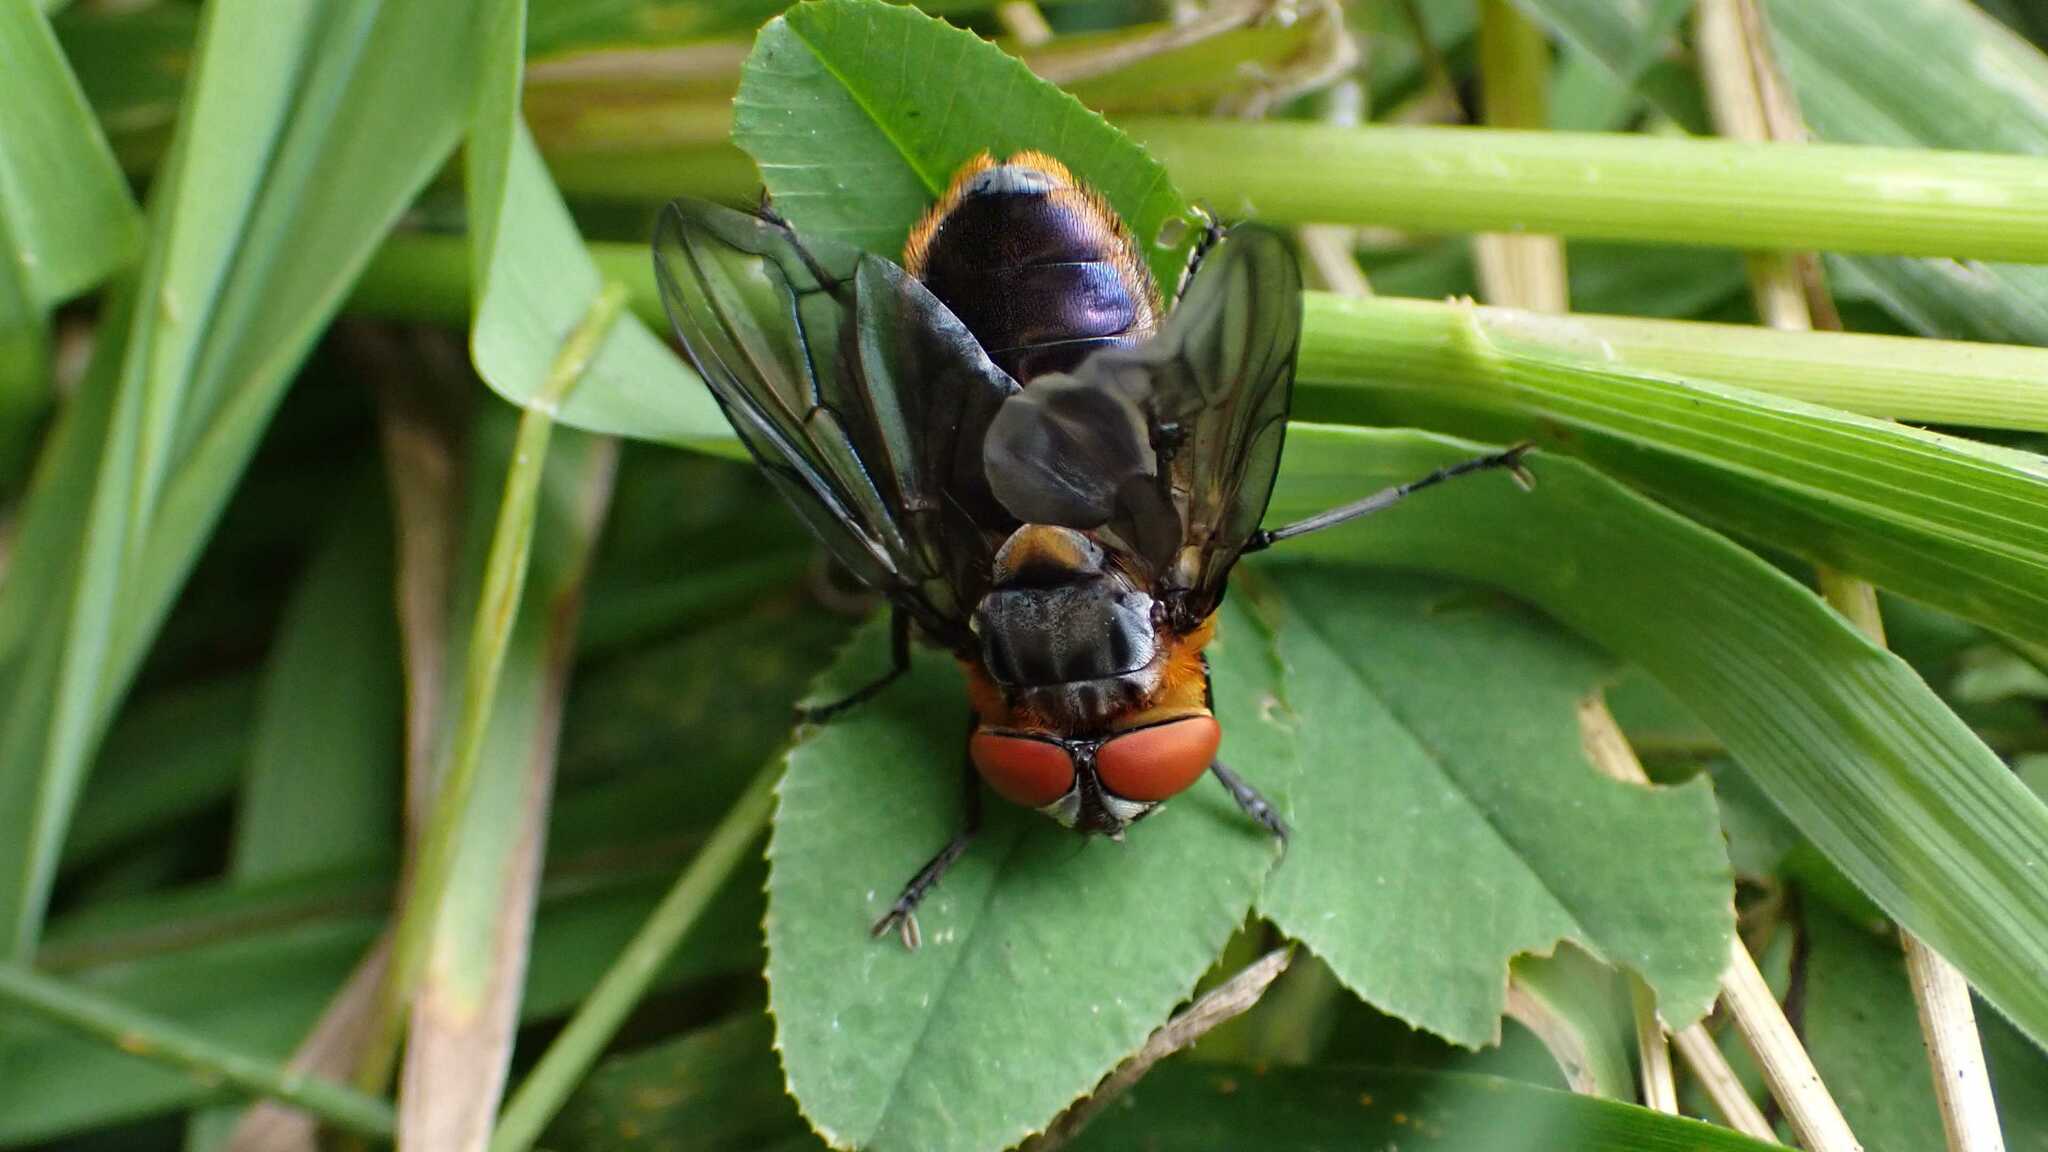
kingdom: Animalia
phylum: Arthropoda
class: Insecta
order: Diptera
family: Tachinidae
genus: Phasia
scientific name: Phasia hemiptera
